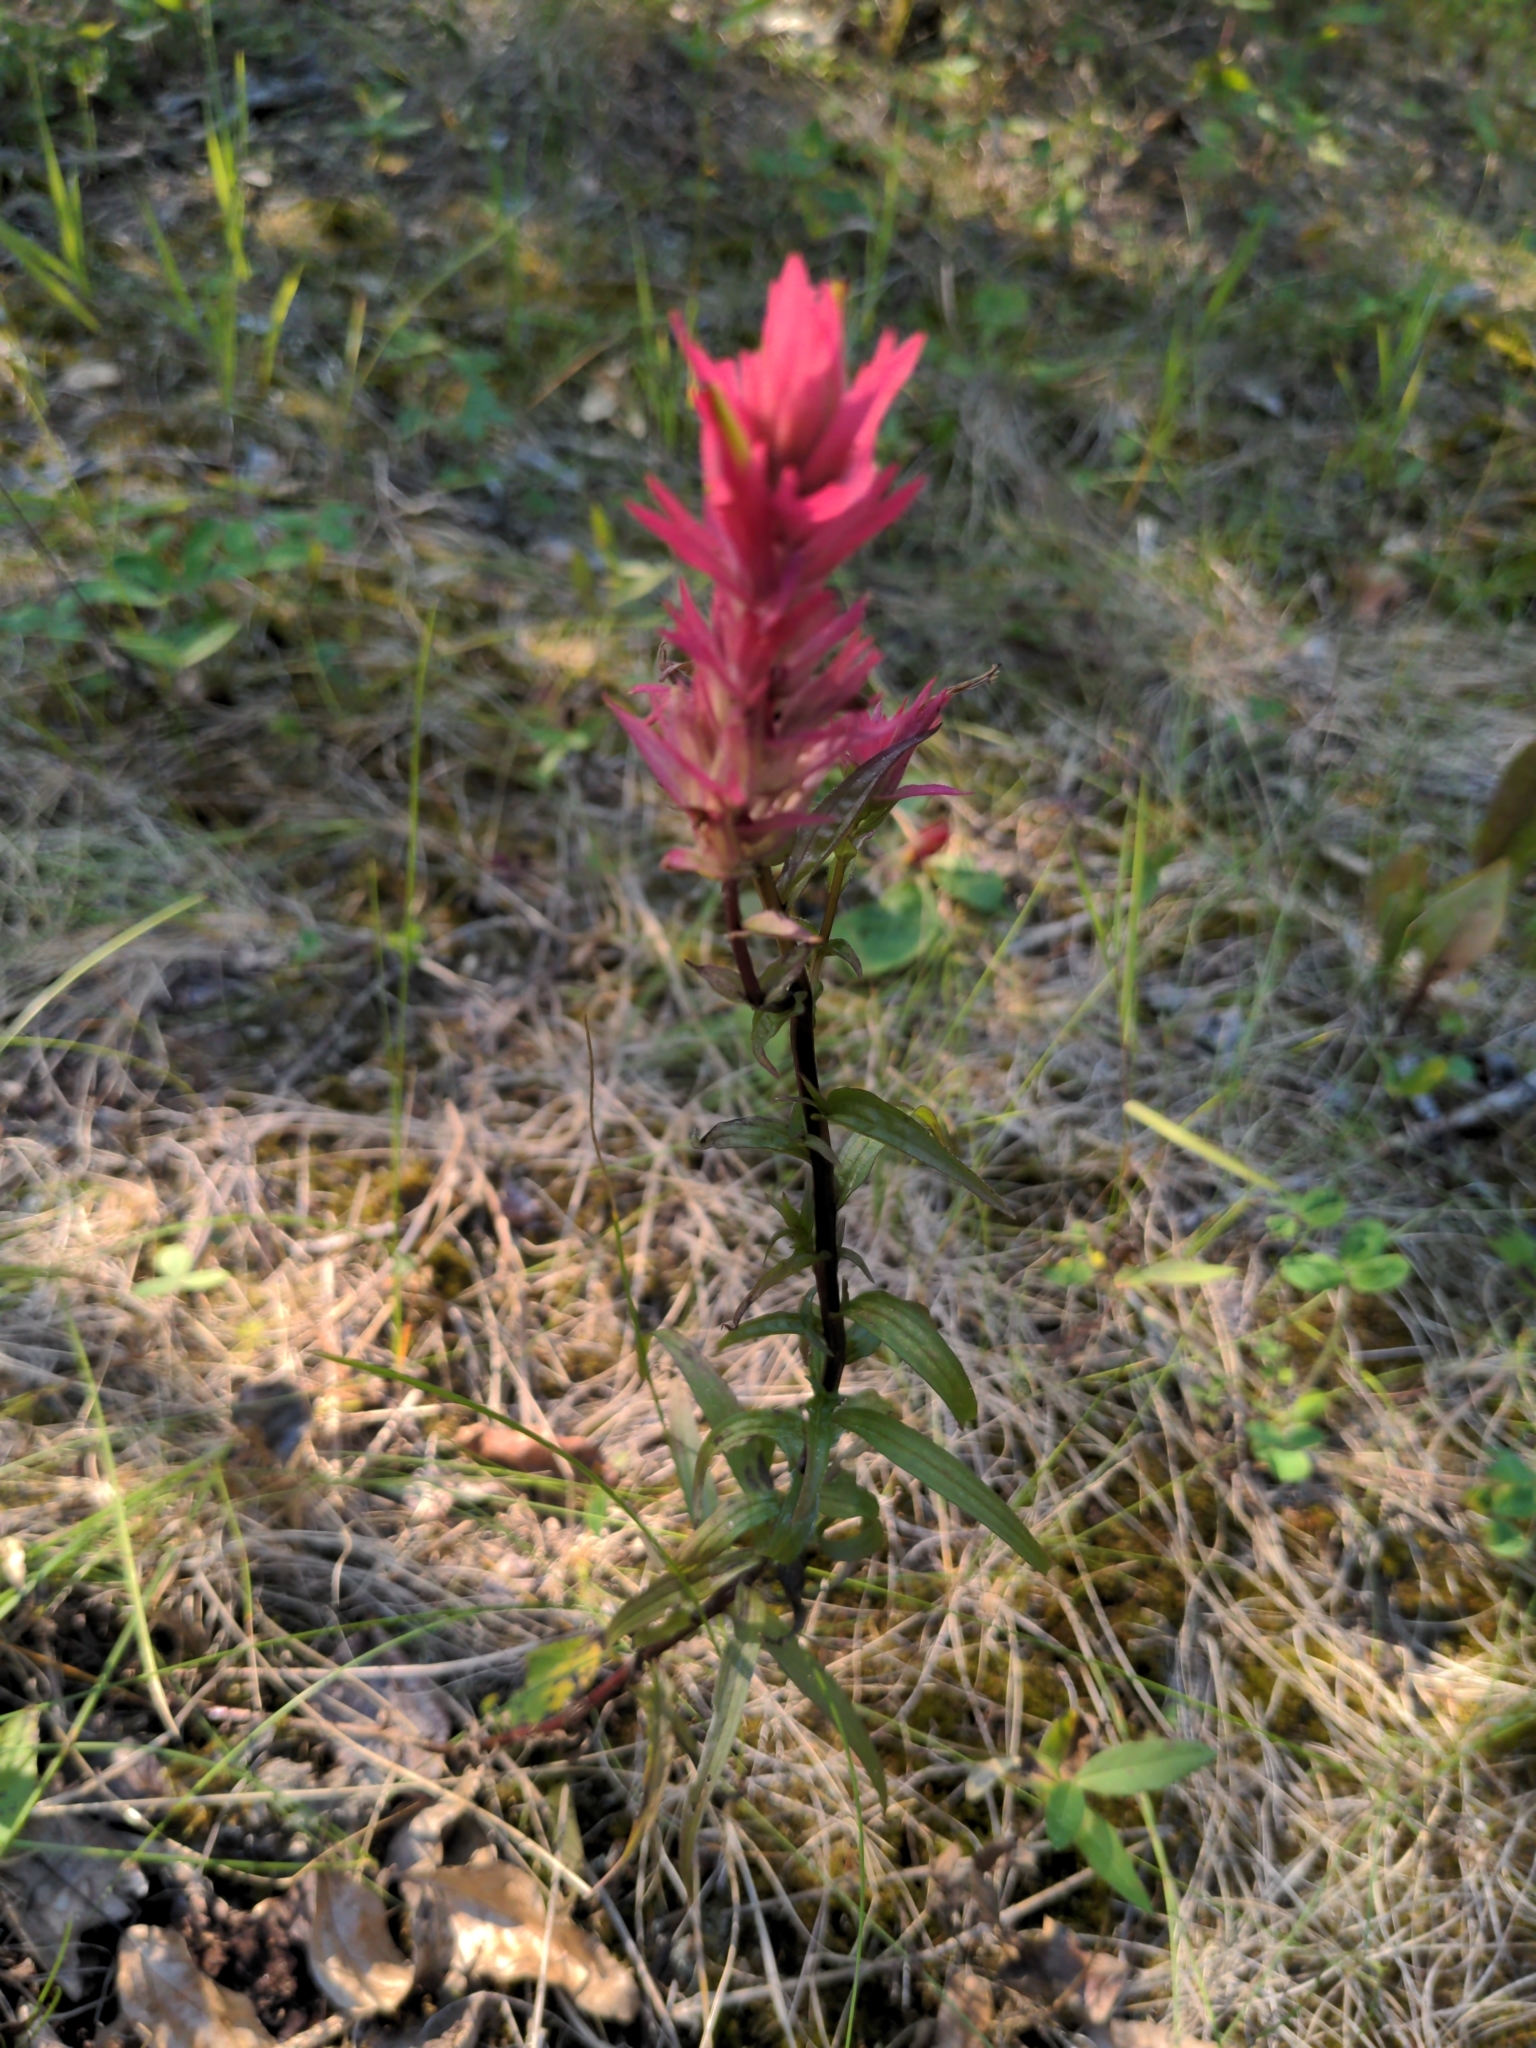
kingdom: Plantae
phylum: Tracheophyta
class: Magnoliopsida
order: Lamiales
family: Orobanchaceae
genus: Castilleja
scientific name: Castilleja miniata
